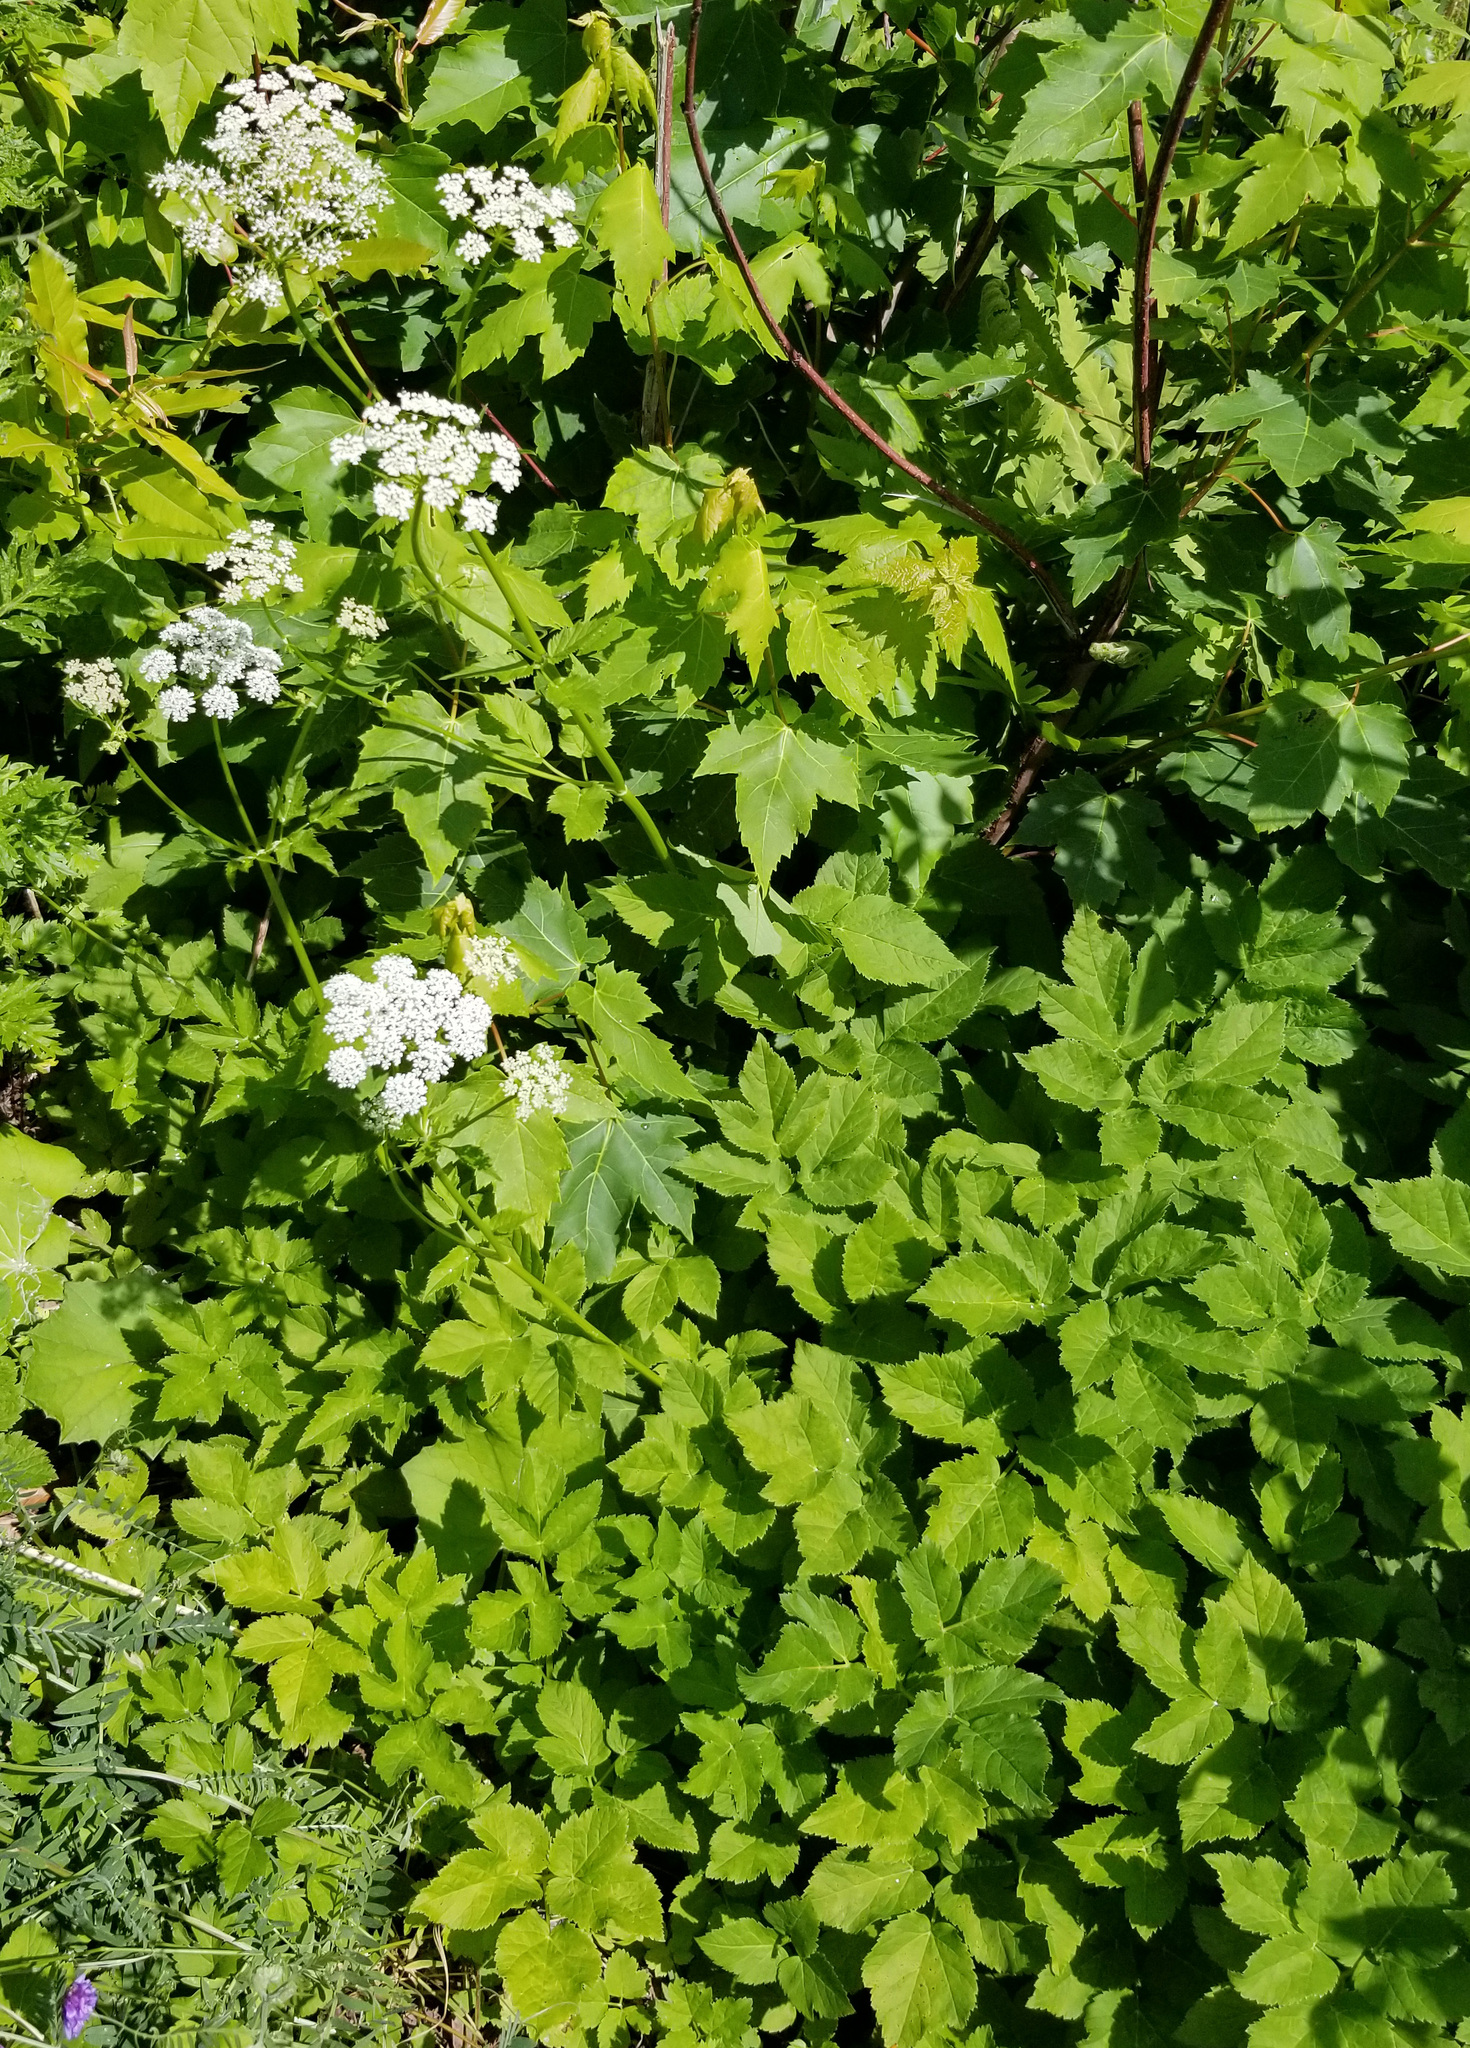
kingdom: Plantae
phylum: Tracheophyta
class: Magnoliopsida
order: Apiales
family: Apiaceae
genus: Aegopodium
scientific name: Aegopodium podagraria
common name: Ground-elder
